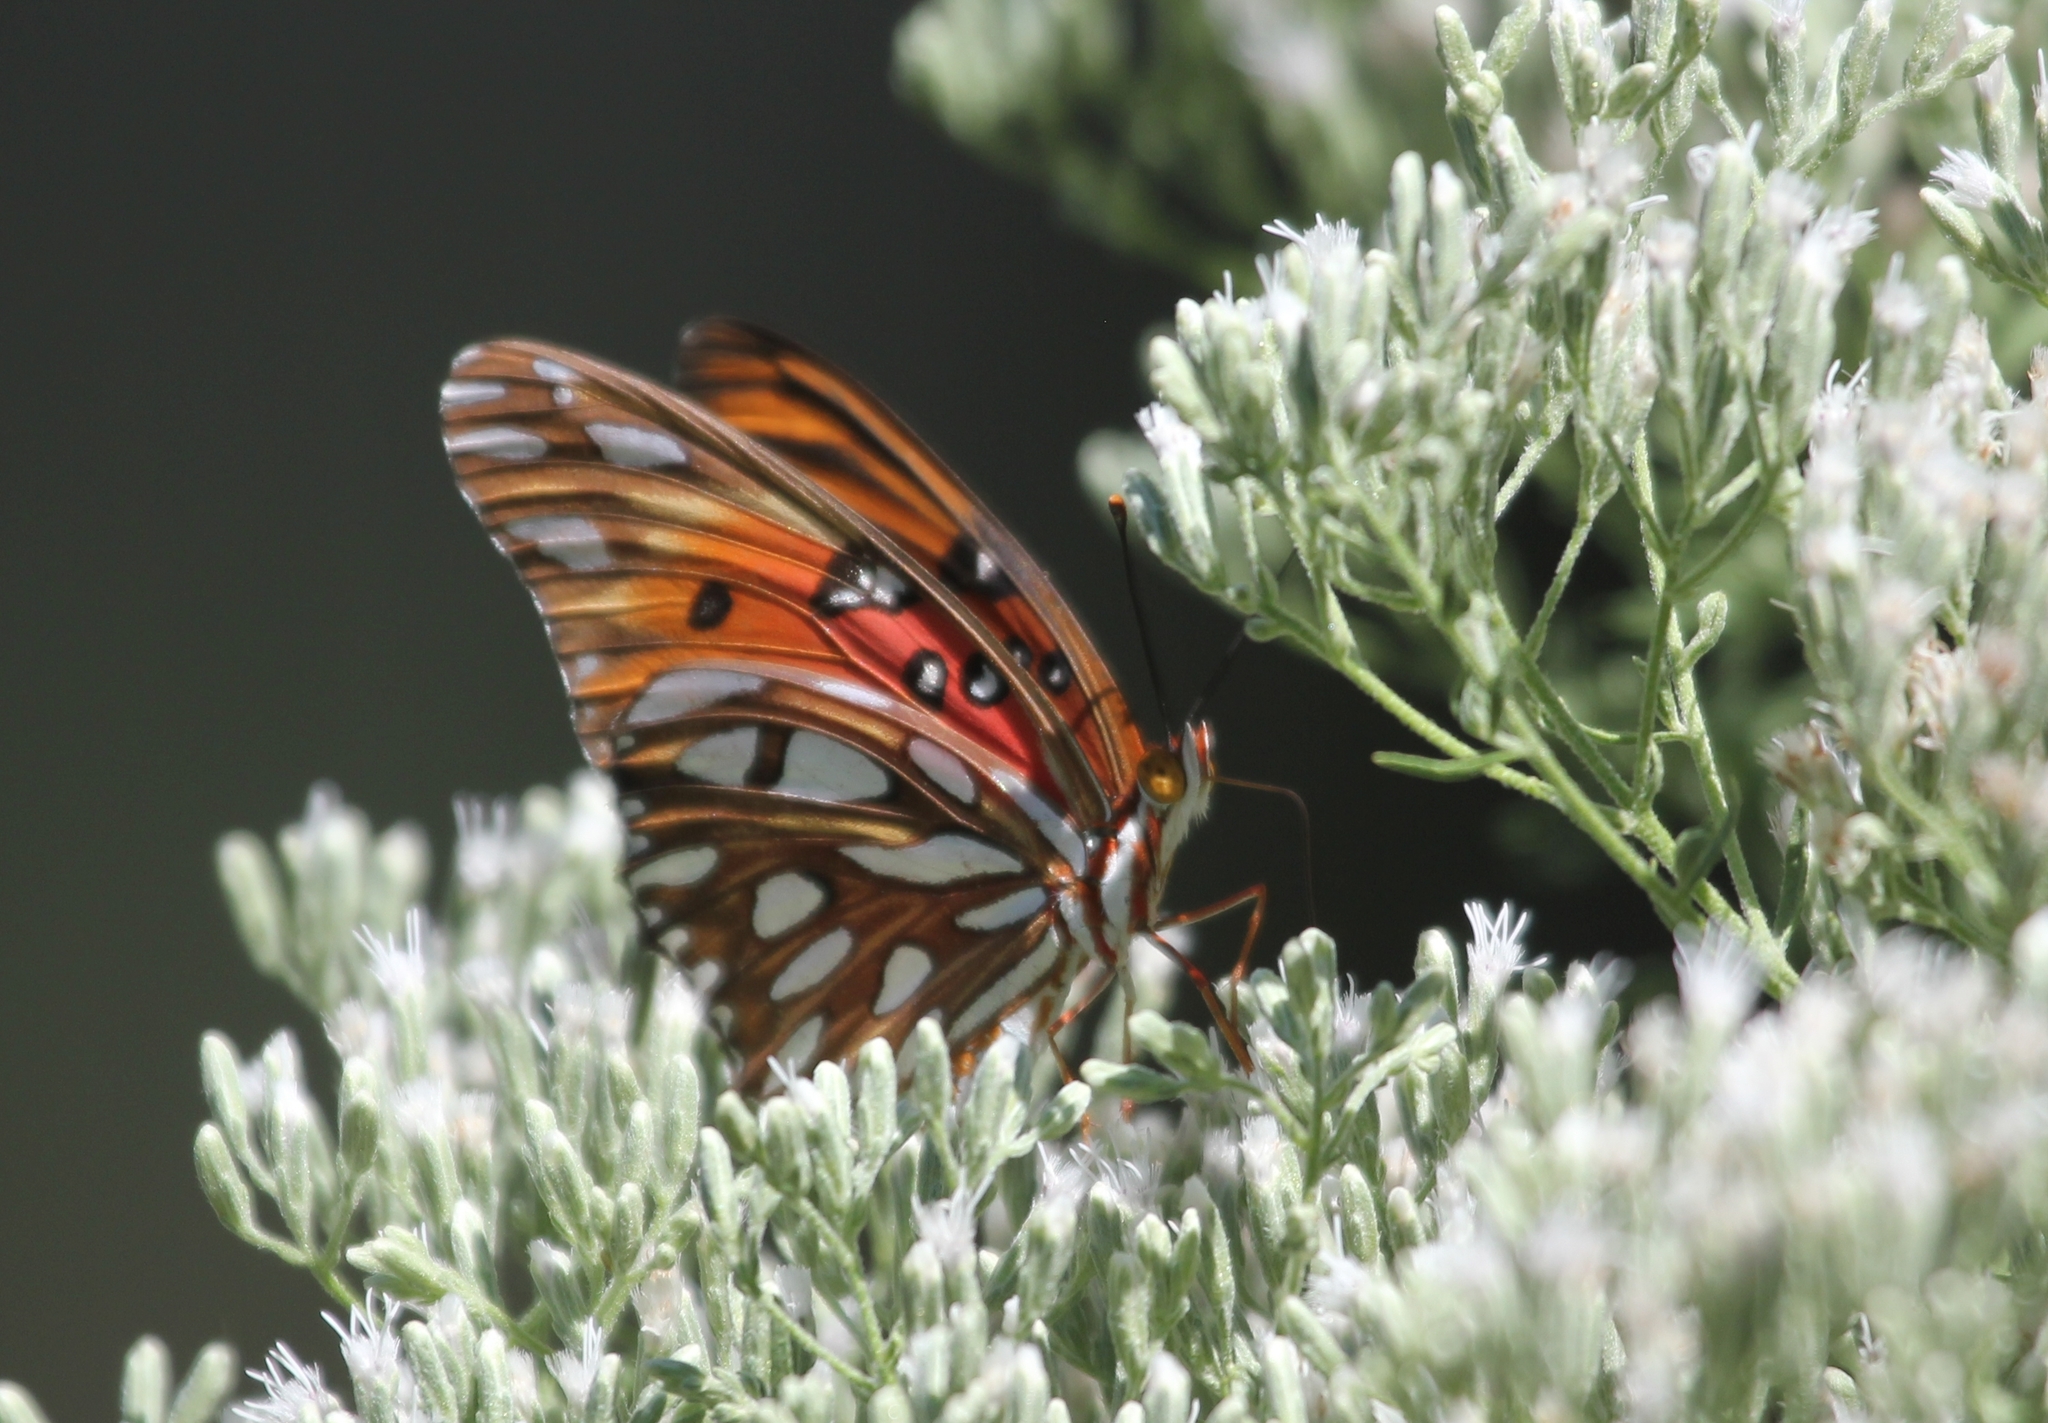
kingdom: Animalia
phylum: Arthropoda
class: Insecta
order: Lepidoptera
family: Nymphalidae
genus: Dione
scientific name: Dione vanillae
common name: Gulf fritillary
